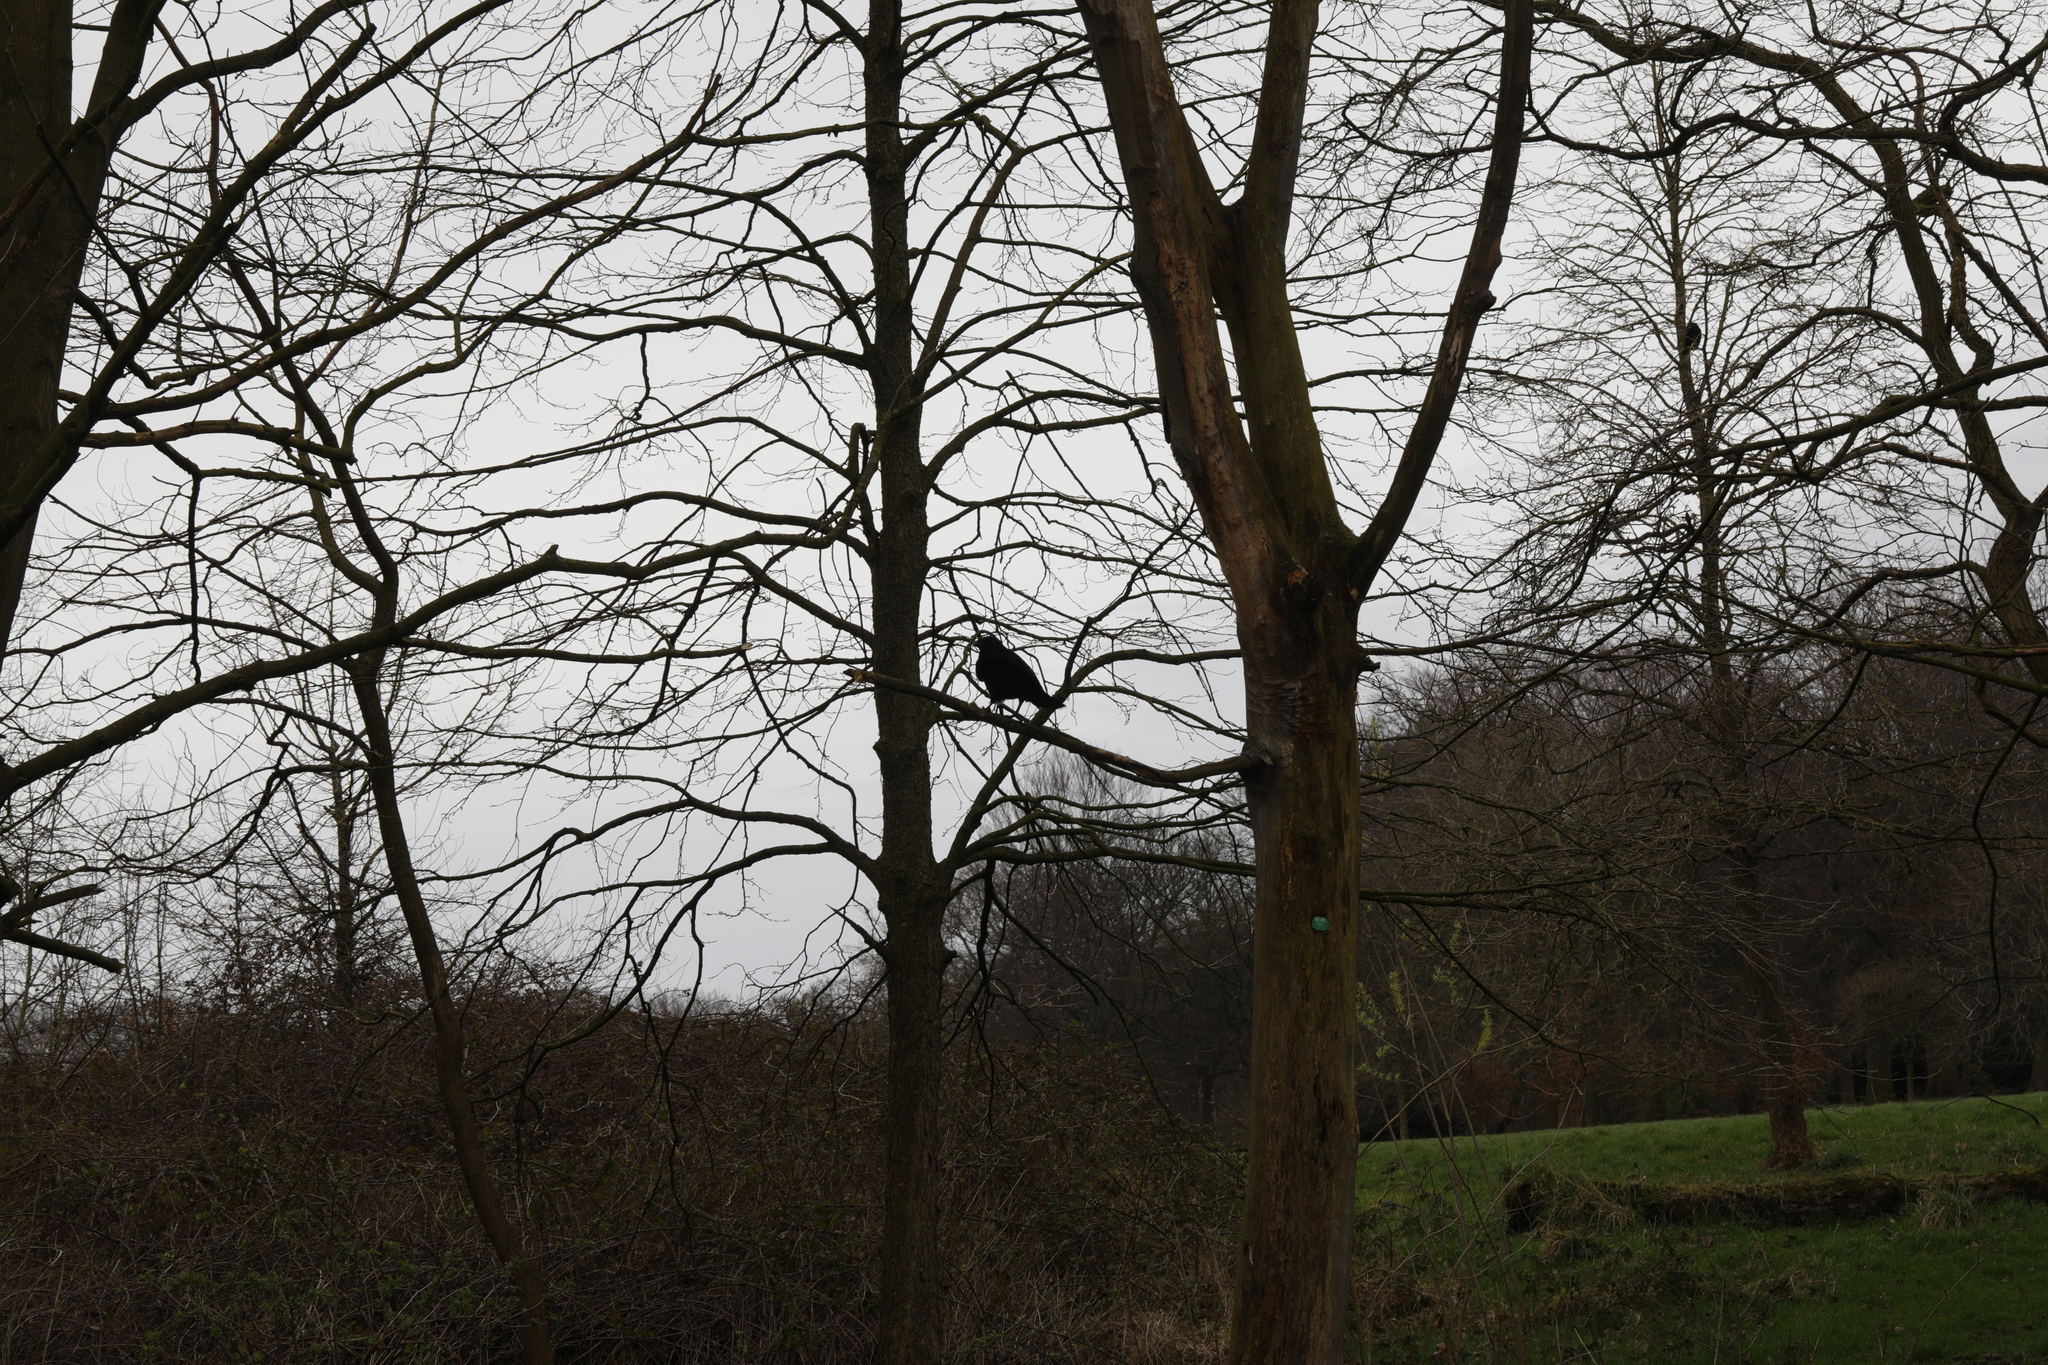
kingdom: Animalia
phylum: Chordata
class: Aves
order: Passeriformes
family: Corvidae
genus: Corvus
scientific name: Corvus corone
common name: Carrion crow
